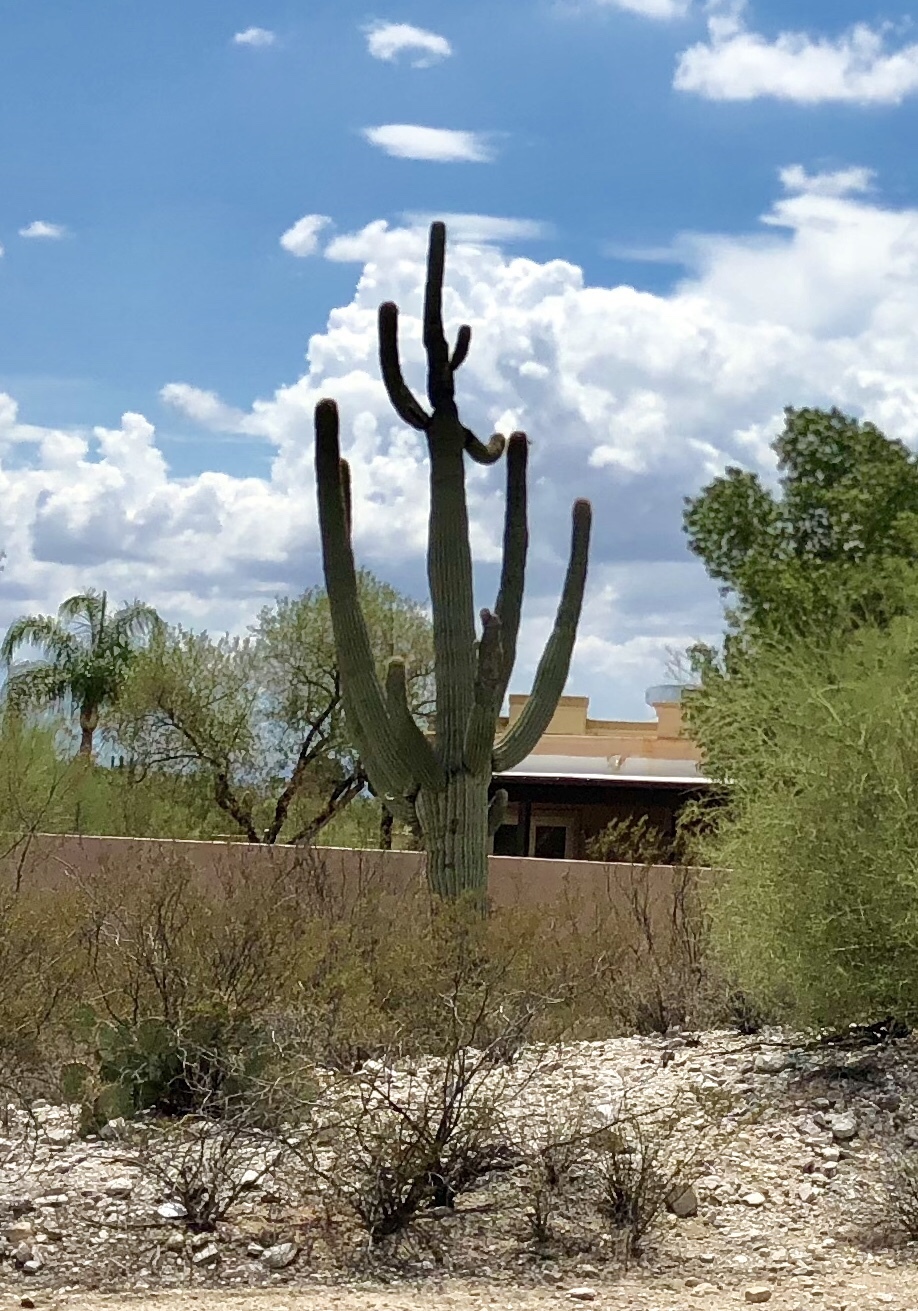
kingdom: Plantae
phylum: Tracheophyta
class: Magnoliopsida
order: Caryophyllales
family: Cactaceae
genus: Carnegiea
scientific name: Carnegiea gigantea
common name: Saguaro
